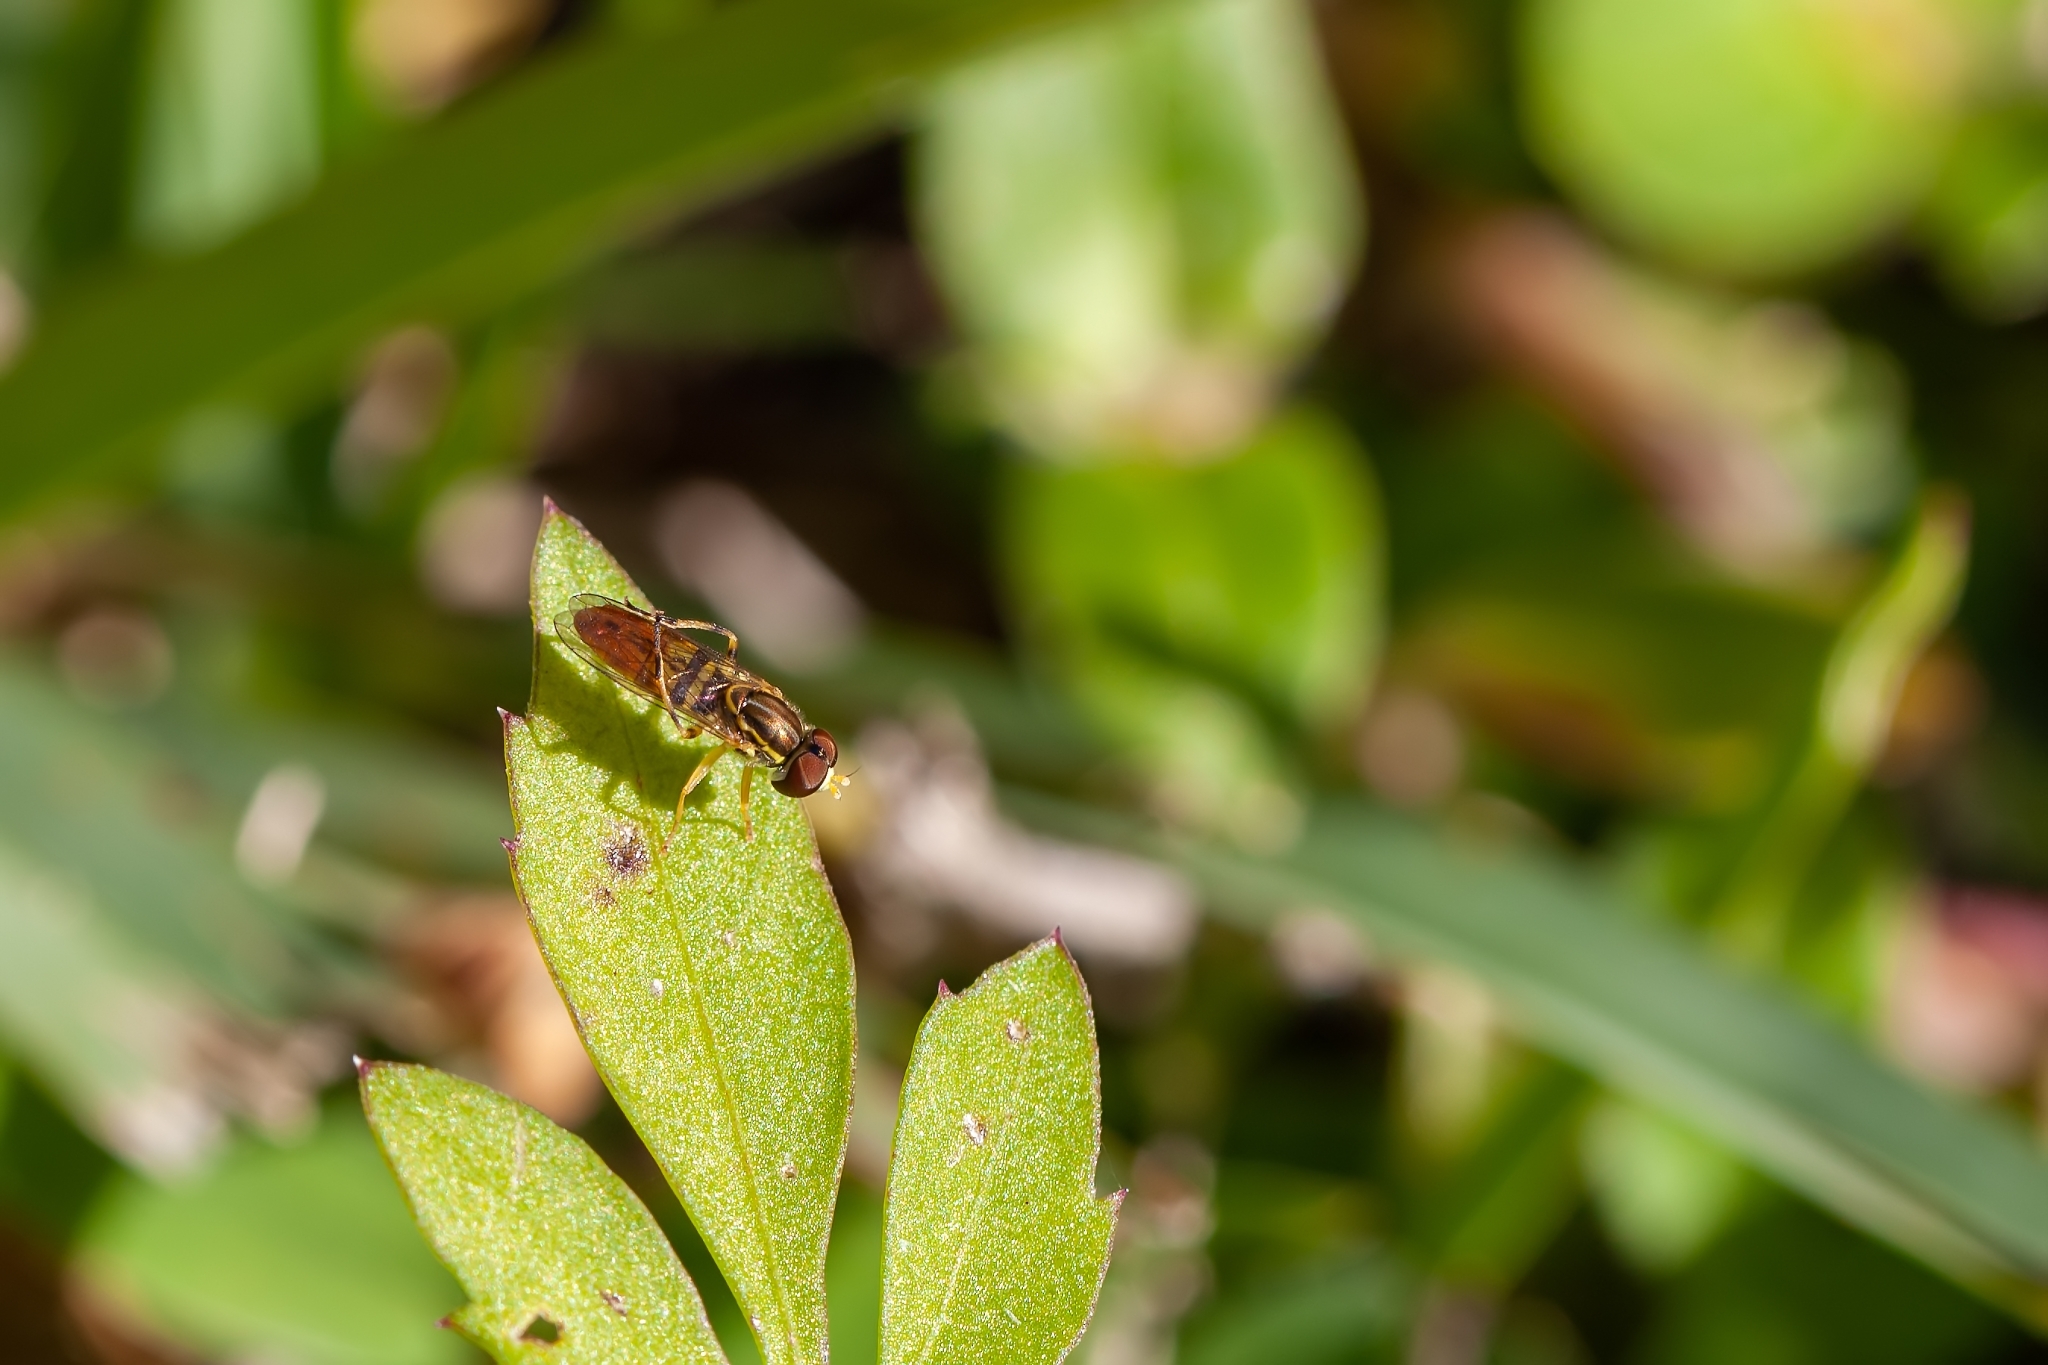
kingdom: Animalia
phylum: Arthropoda
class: Insecta
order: Diptera
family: Syrphidae
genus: Toxomerus
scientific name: Toxomerus floralis
